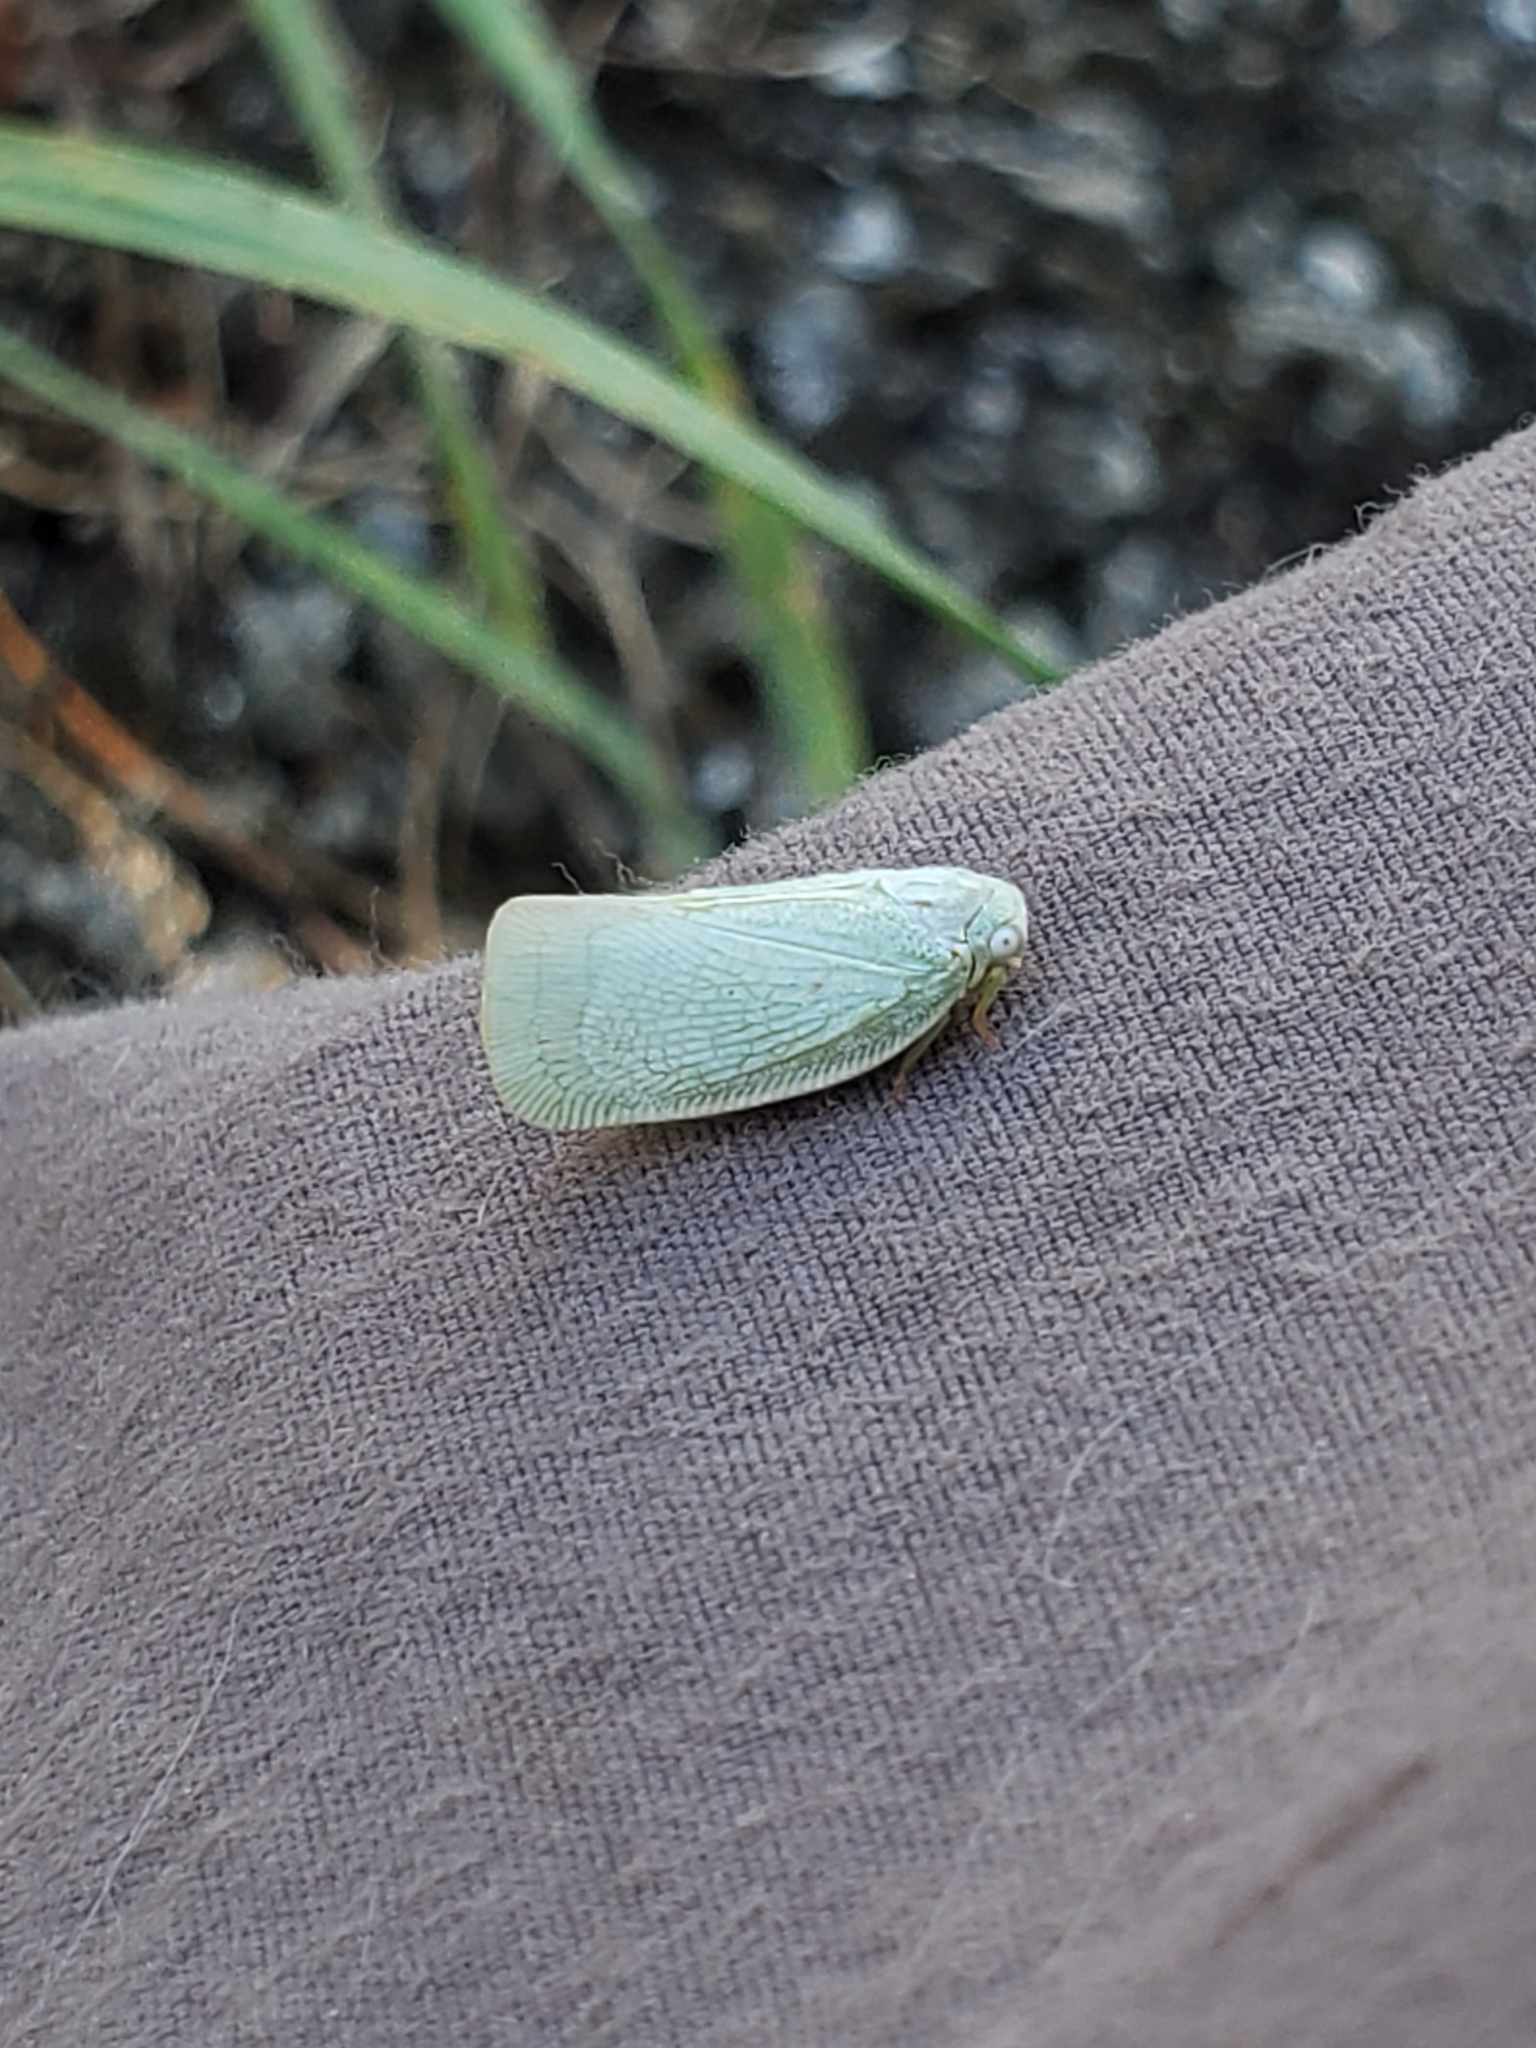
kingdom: Animalia
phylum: Arthropoda
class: Insecta
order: Hemiptera
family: Flatidae
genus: Flatormenis
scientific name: Flatormenis proxima
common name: Northern flatid planthopper
